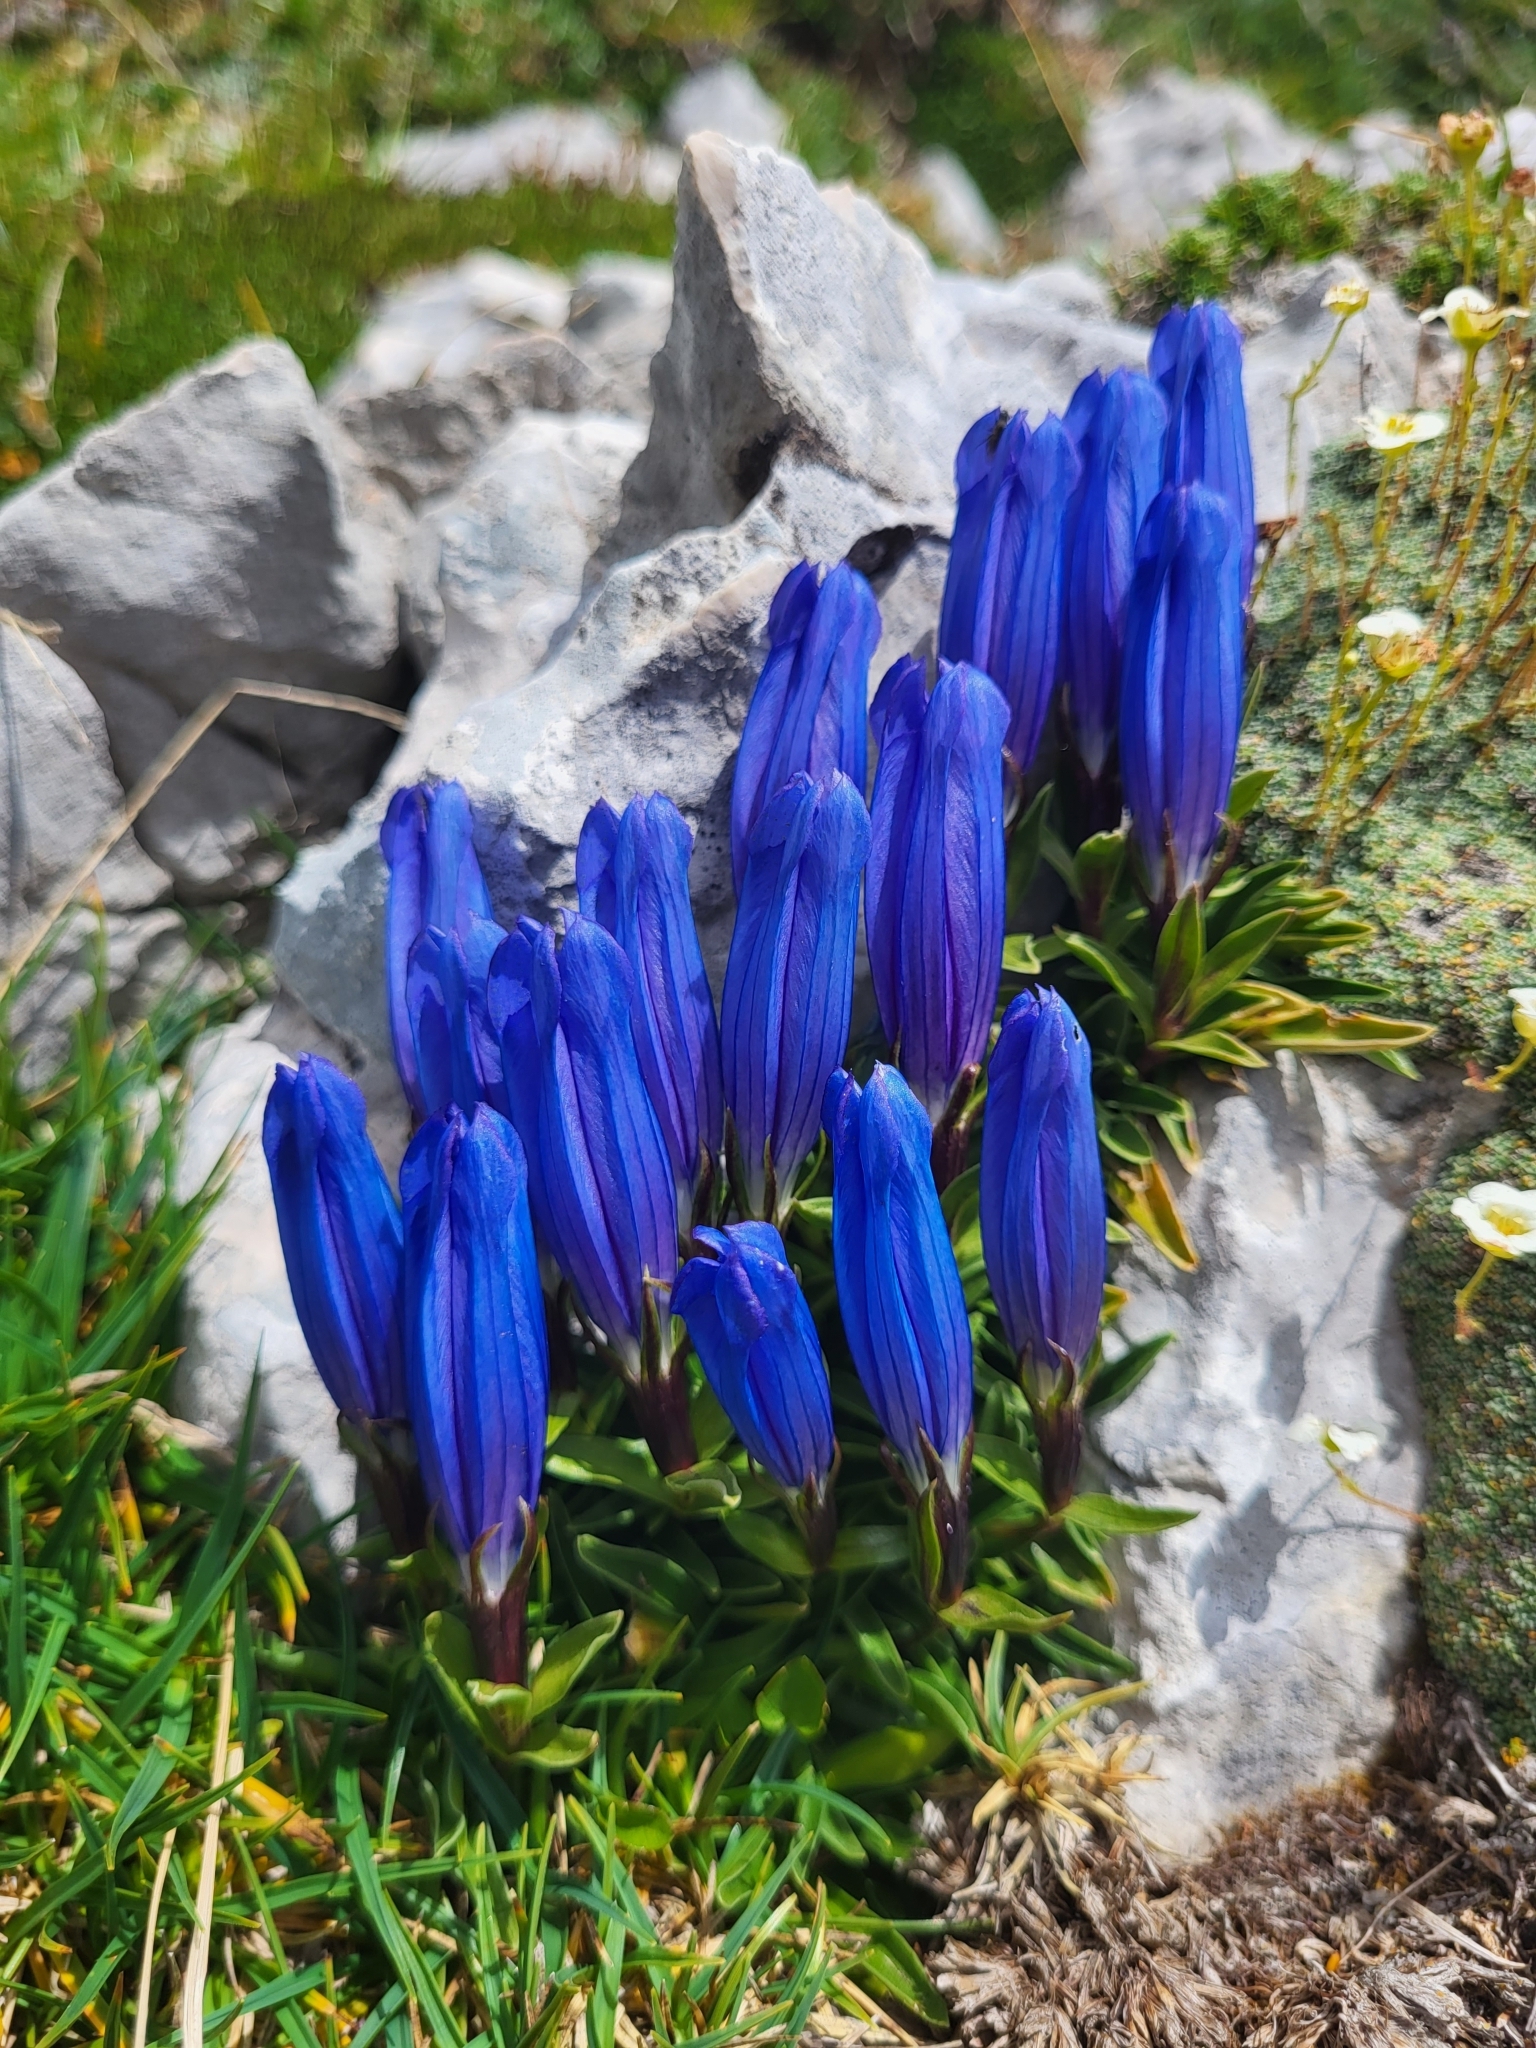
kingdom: Plantae
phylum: Tracheophyta
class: Magnoliopsida
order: Gentianales
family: Gentianaceae
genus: Gentiana
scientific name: Gentiana froelichii
